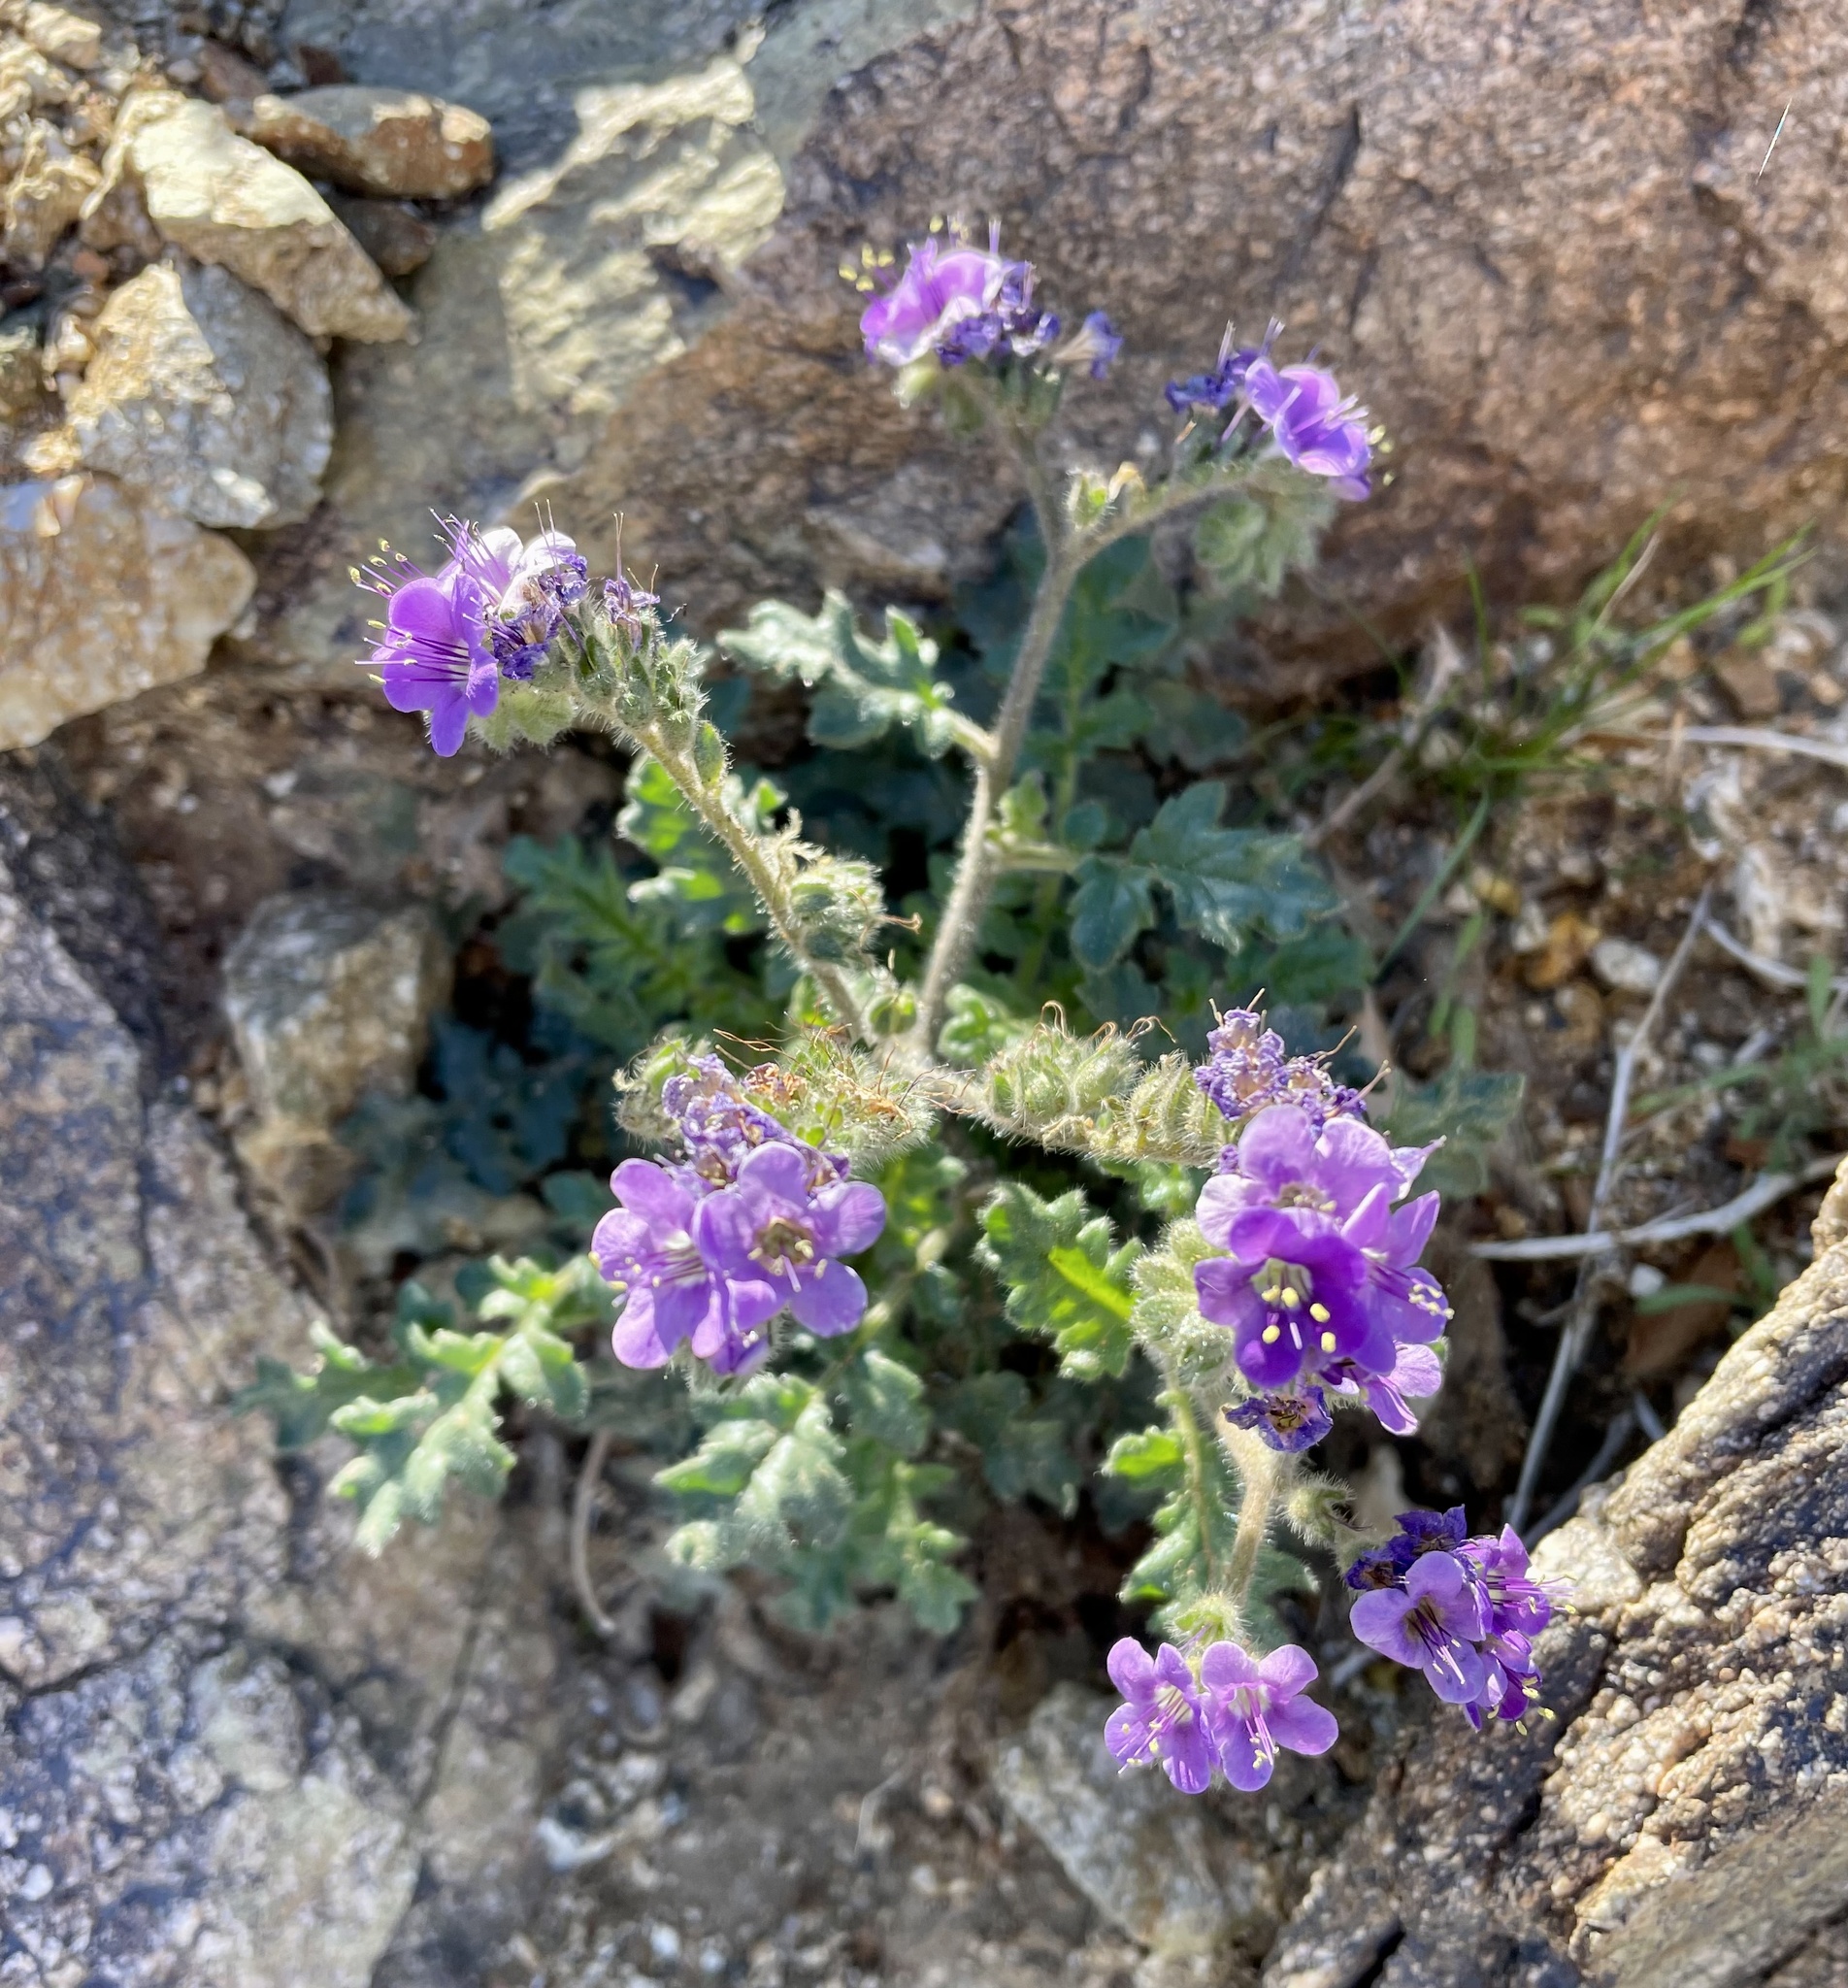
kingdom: Plantae
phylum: Tracheophyta
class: Magnoliopsida
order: Boraginales
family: Hydrophyllaceae
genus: Phacelia
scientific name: Phacelia crenulata
